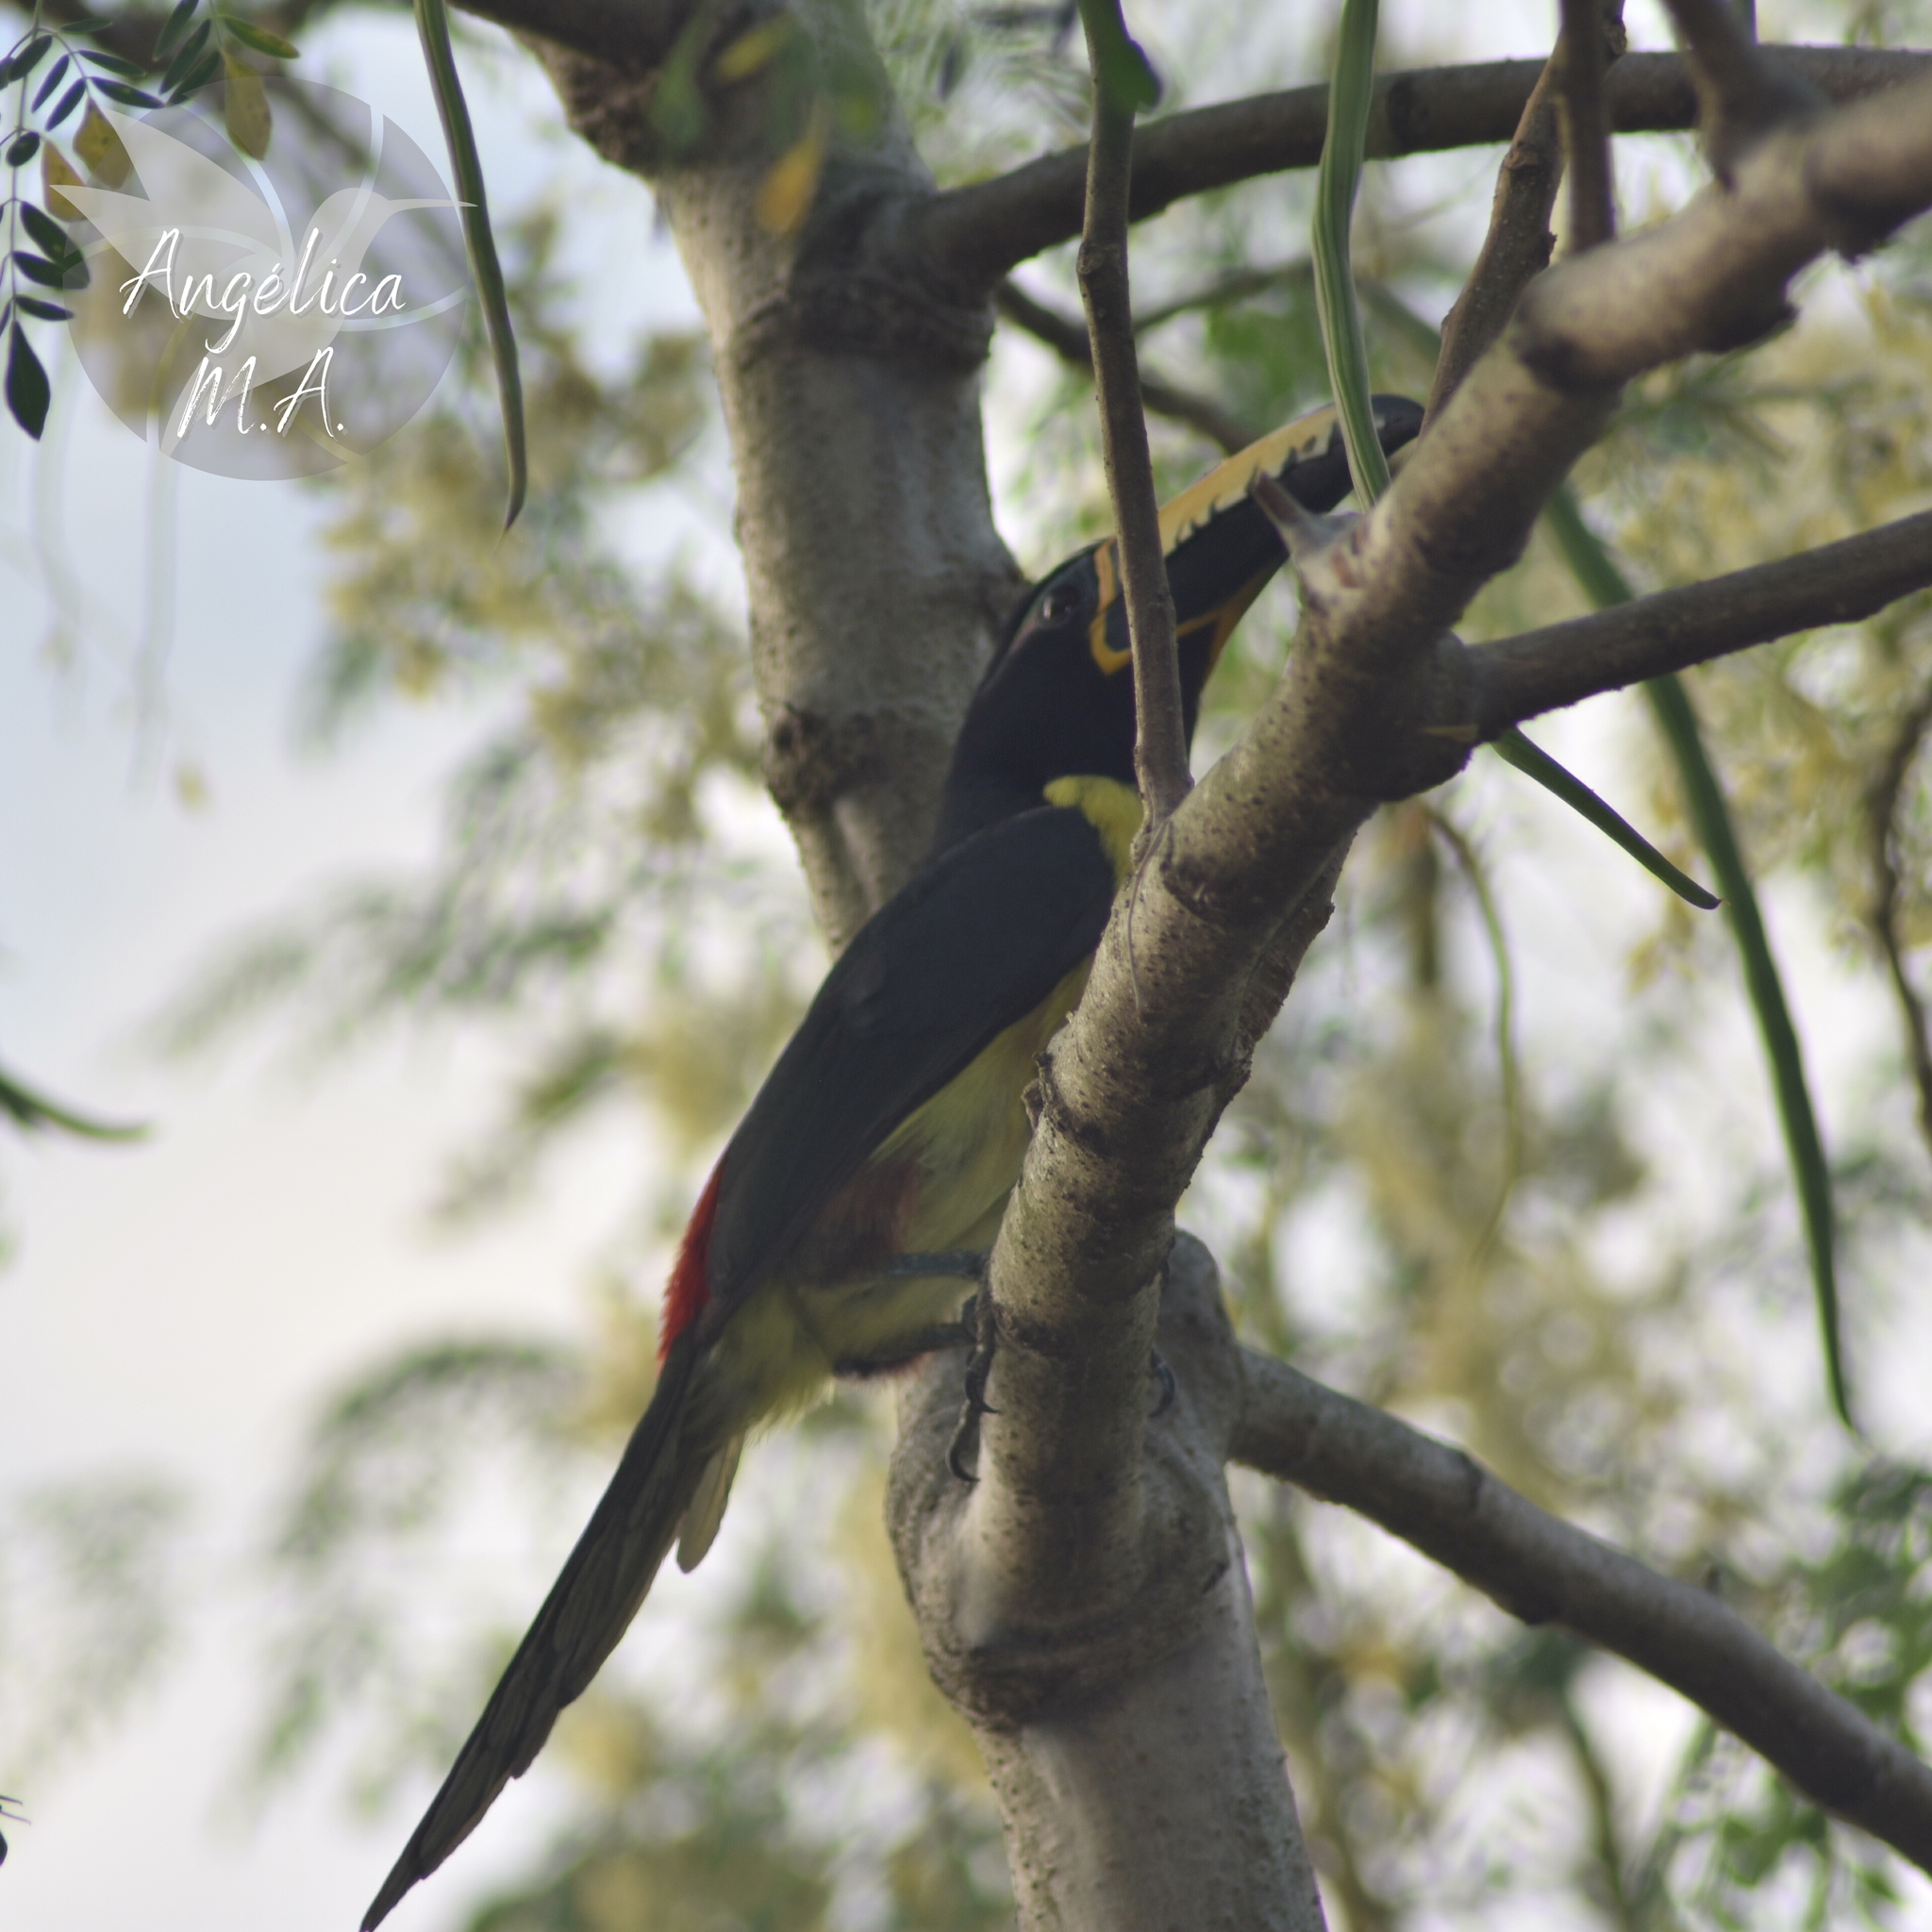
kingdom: Animalia
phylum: Chordata
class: Aves
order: Piciformes
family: Ramphastidae
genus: Pteroglossus
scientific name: Pteroglossus inscriptus
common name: Lettered aracari
